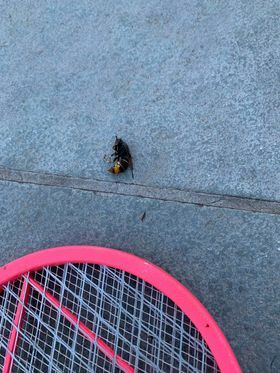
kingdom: Animalia
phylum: Arthropoda
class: Insecta
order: Hymenoptera
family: Vespidae
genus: Vespa
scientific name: Vespa velutina
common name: Asian hornet
